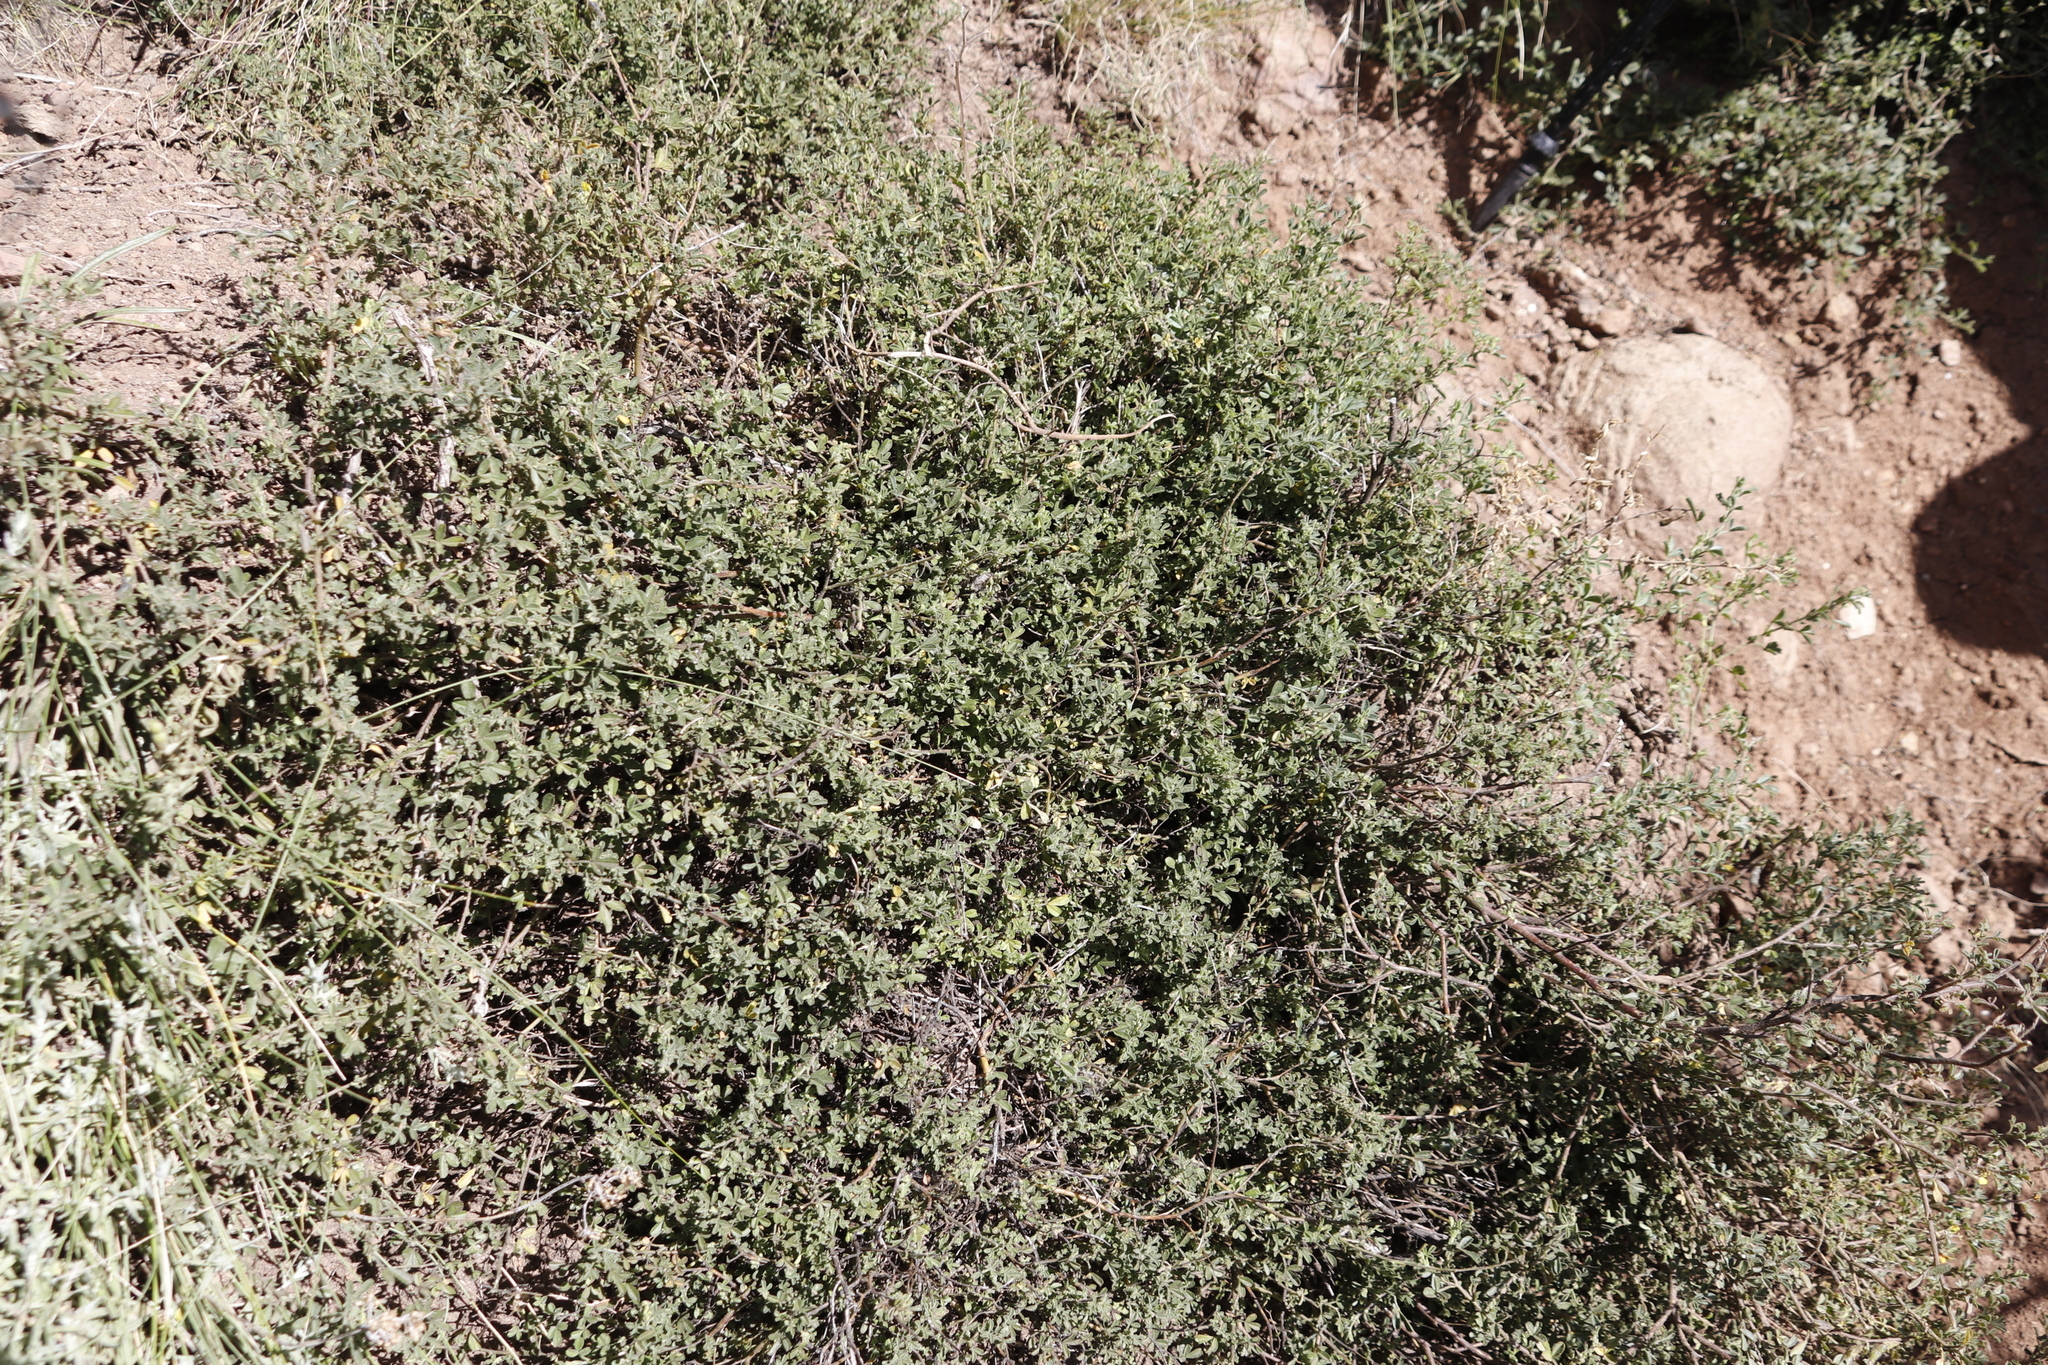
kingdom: Plantae
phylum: Tracheophyta
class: Magnoliopsida
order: Fabales
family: Fabaceae
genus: Melolobium
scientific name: Melolobium microphyllum
